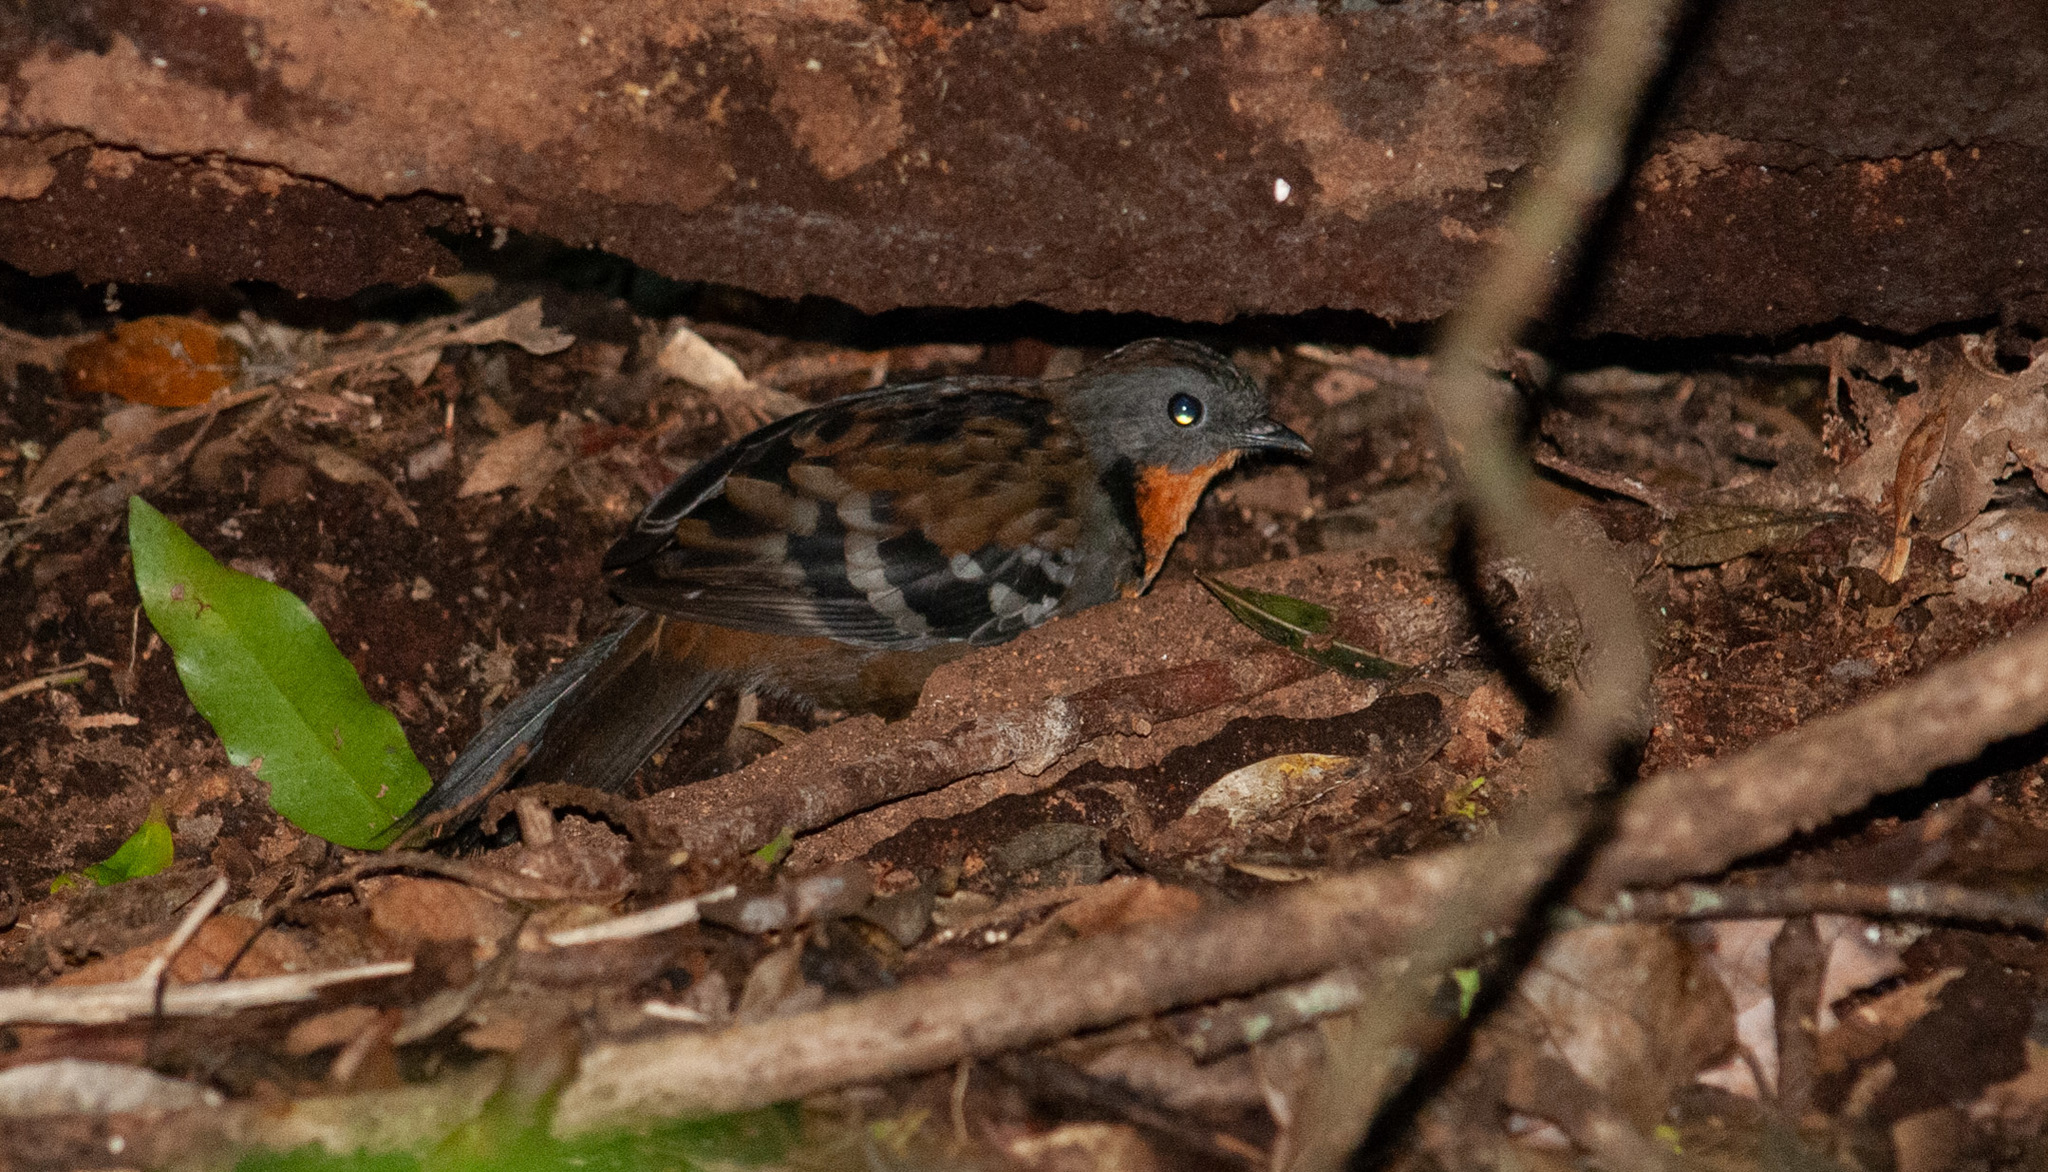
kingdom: Animalia
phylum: Chordata
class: Aves
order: Passeriformes
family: Orthonychidae
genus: Orthonyx
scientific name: Orthonyx temminckii
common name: Australian logrunner
